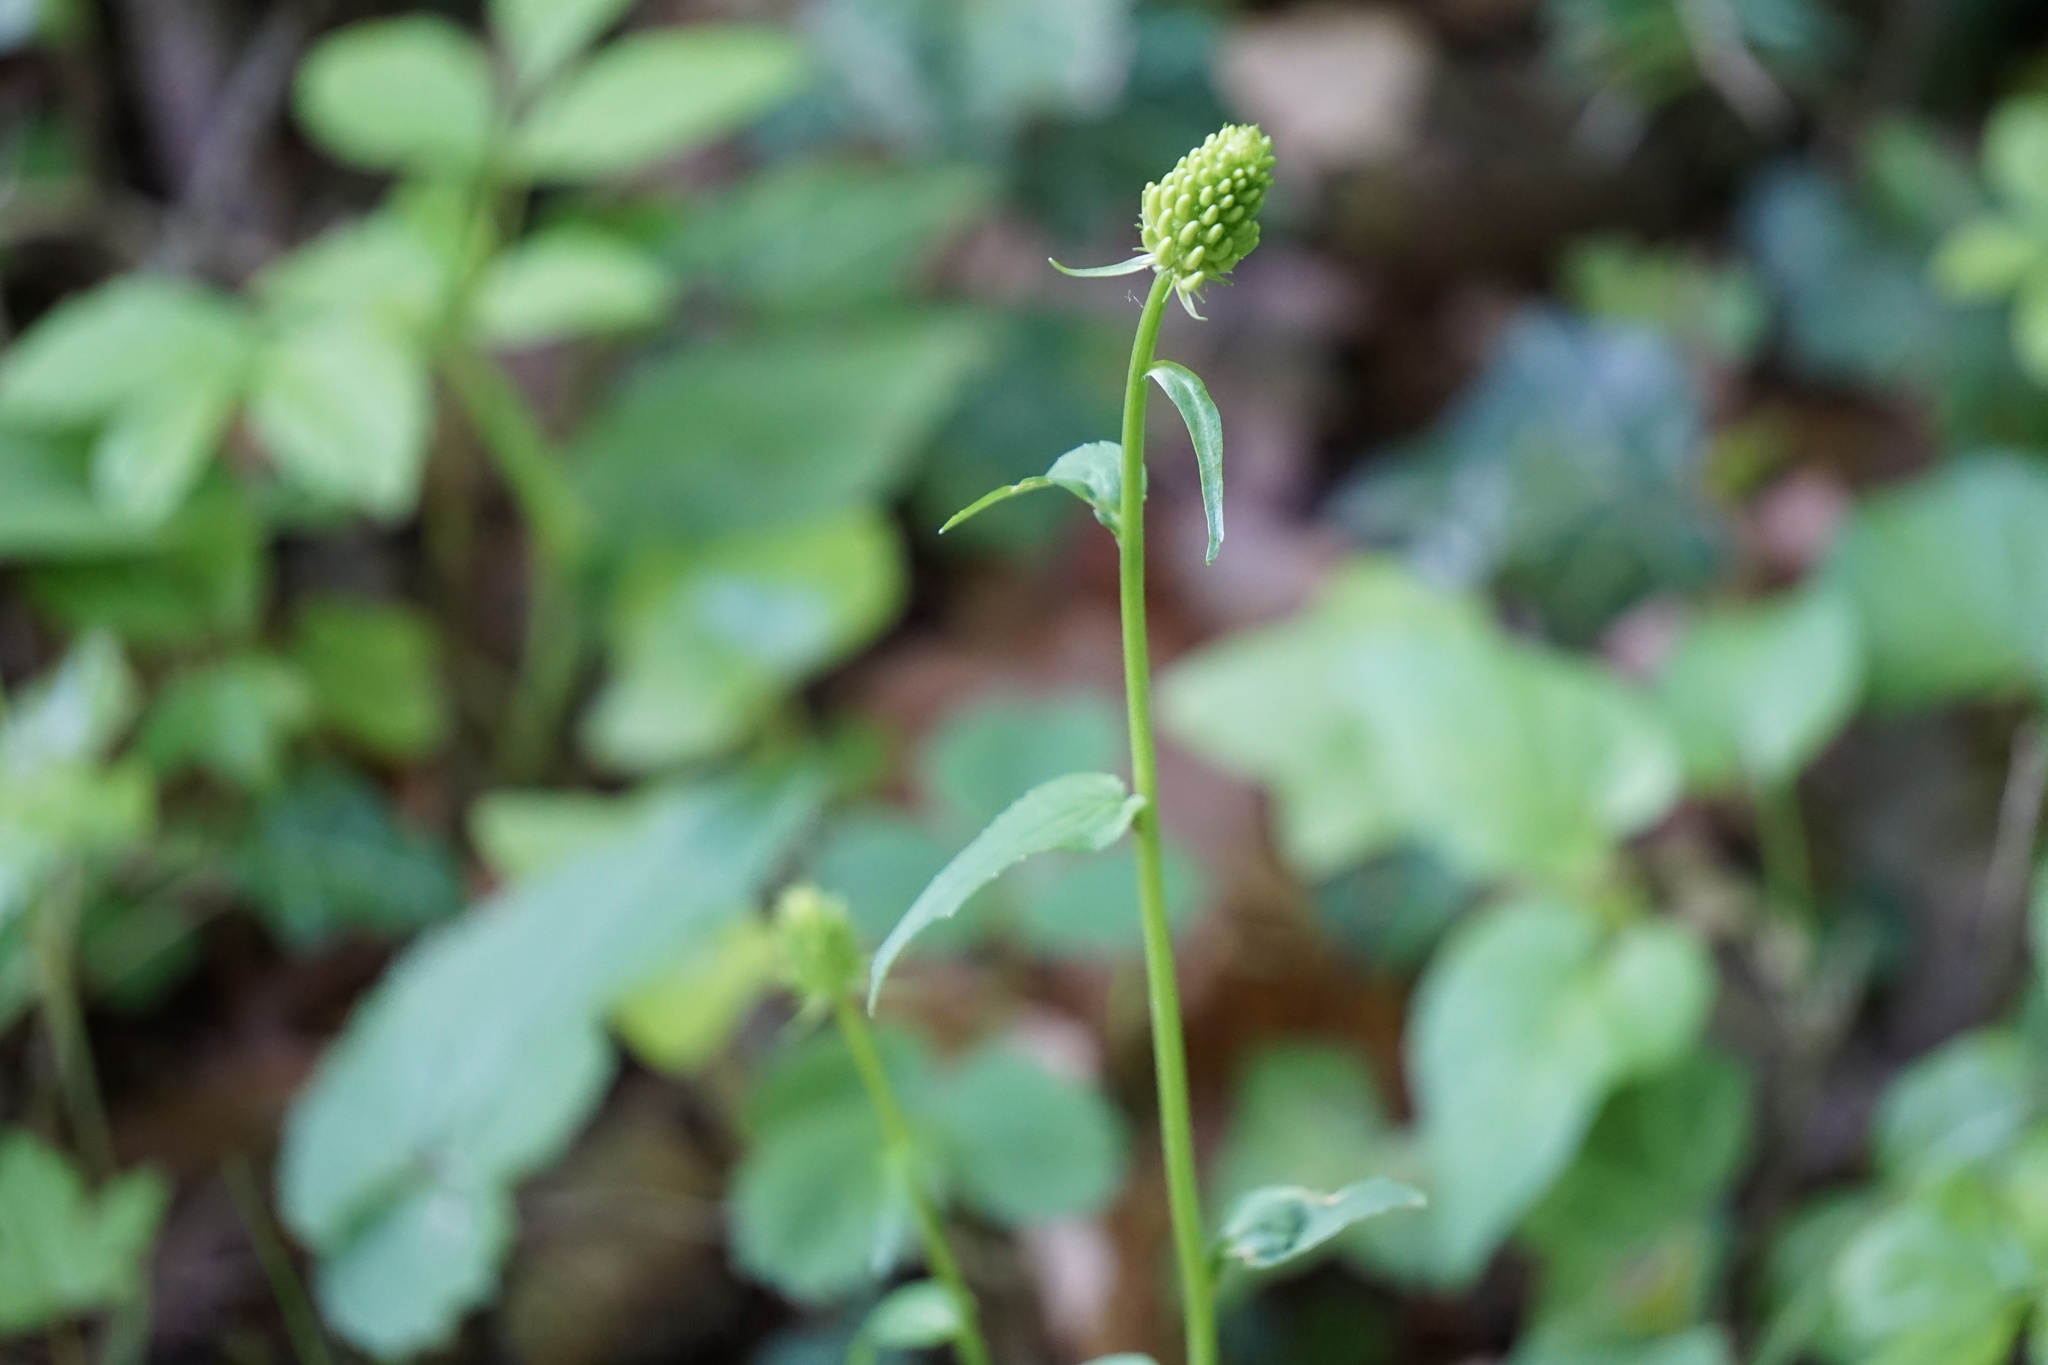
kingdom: Plantae
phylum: Tracheophyta
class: Magnoliopsida
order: Asterales
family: Campanulaceae
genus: Phyteuma
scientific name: Phyteuma spicatum
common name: Spiked rampion
